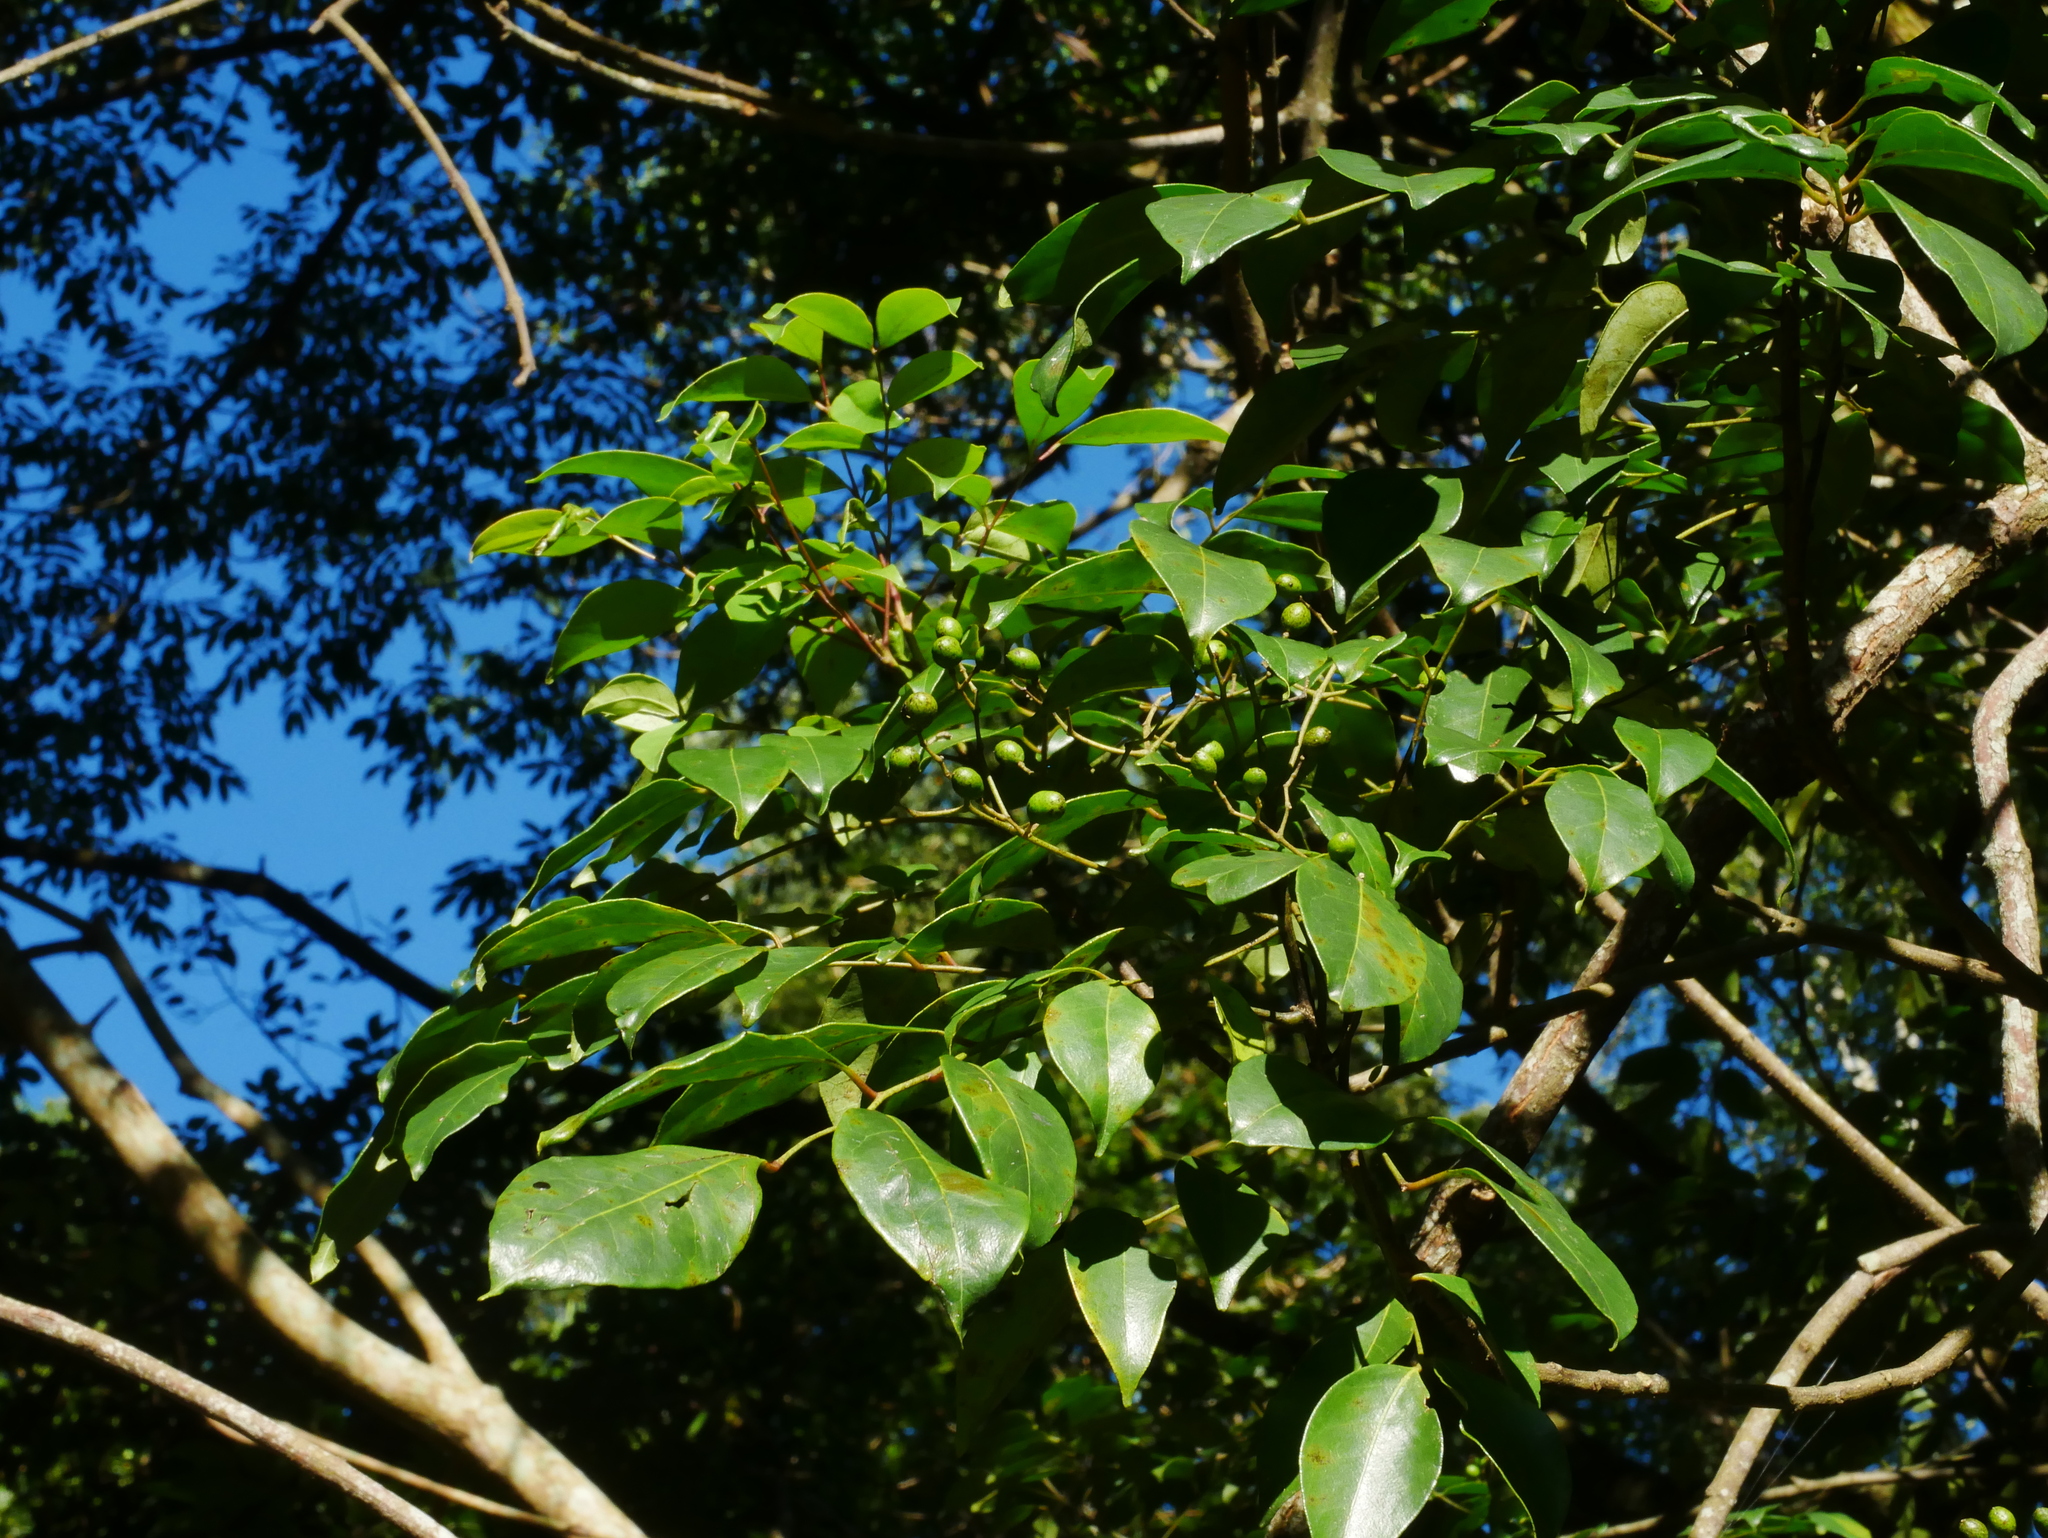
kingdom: Plantae
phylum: Tracheophyta
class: Magnoliopsida
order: Sapindales
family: Rutaceae
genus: Murraya
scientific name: Murraya euchrestifolia
